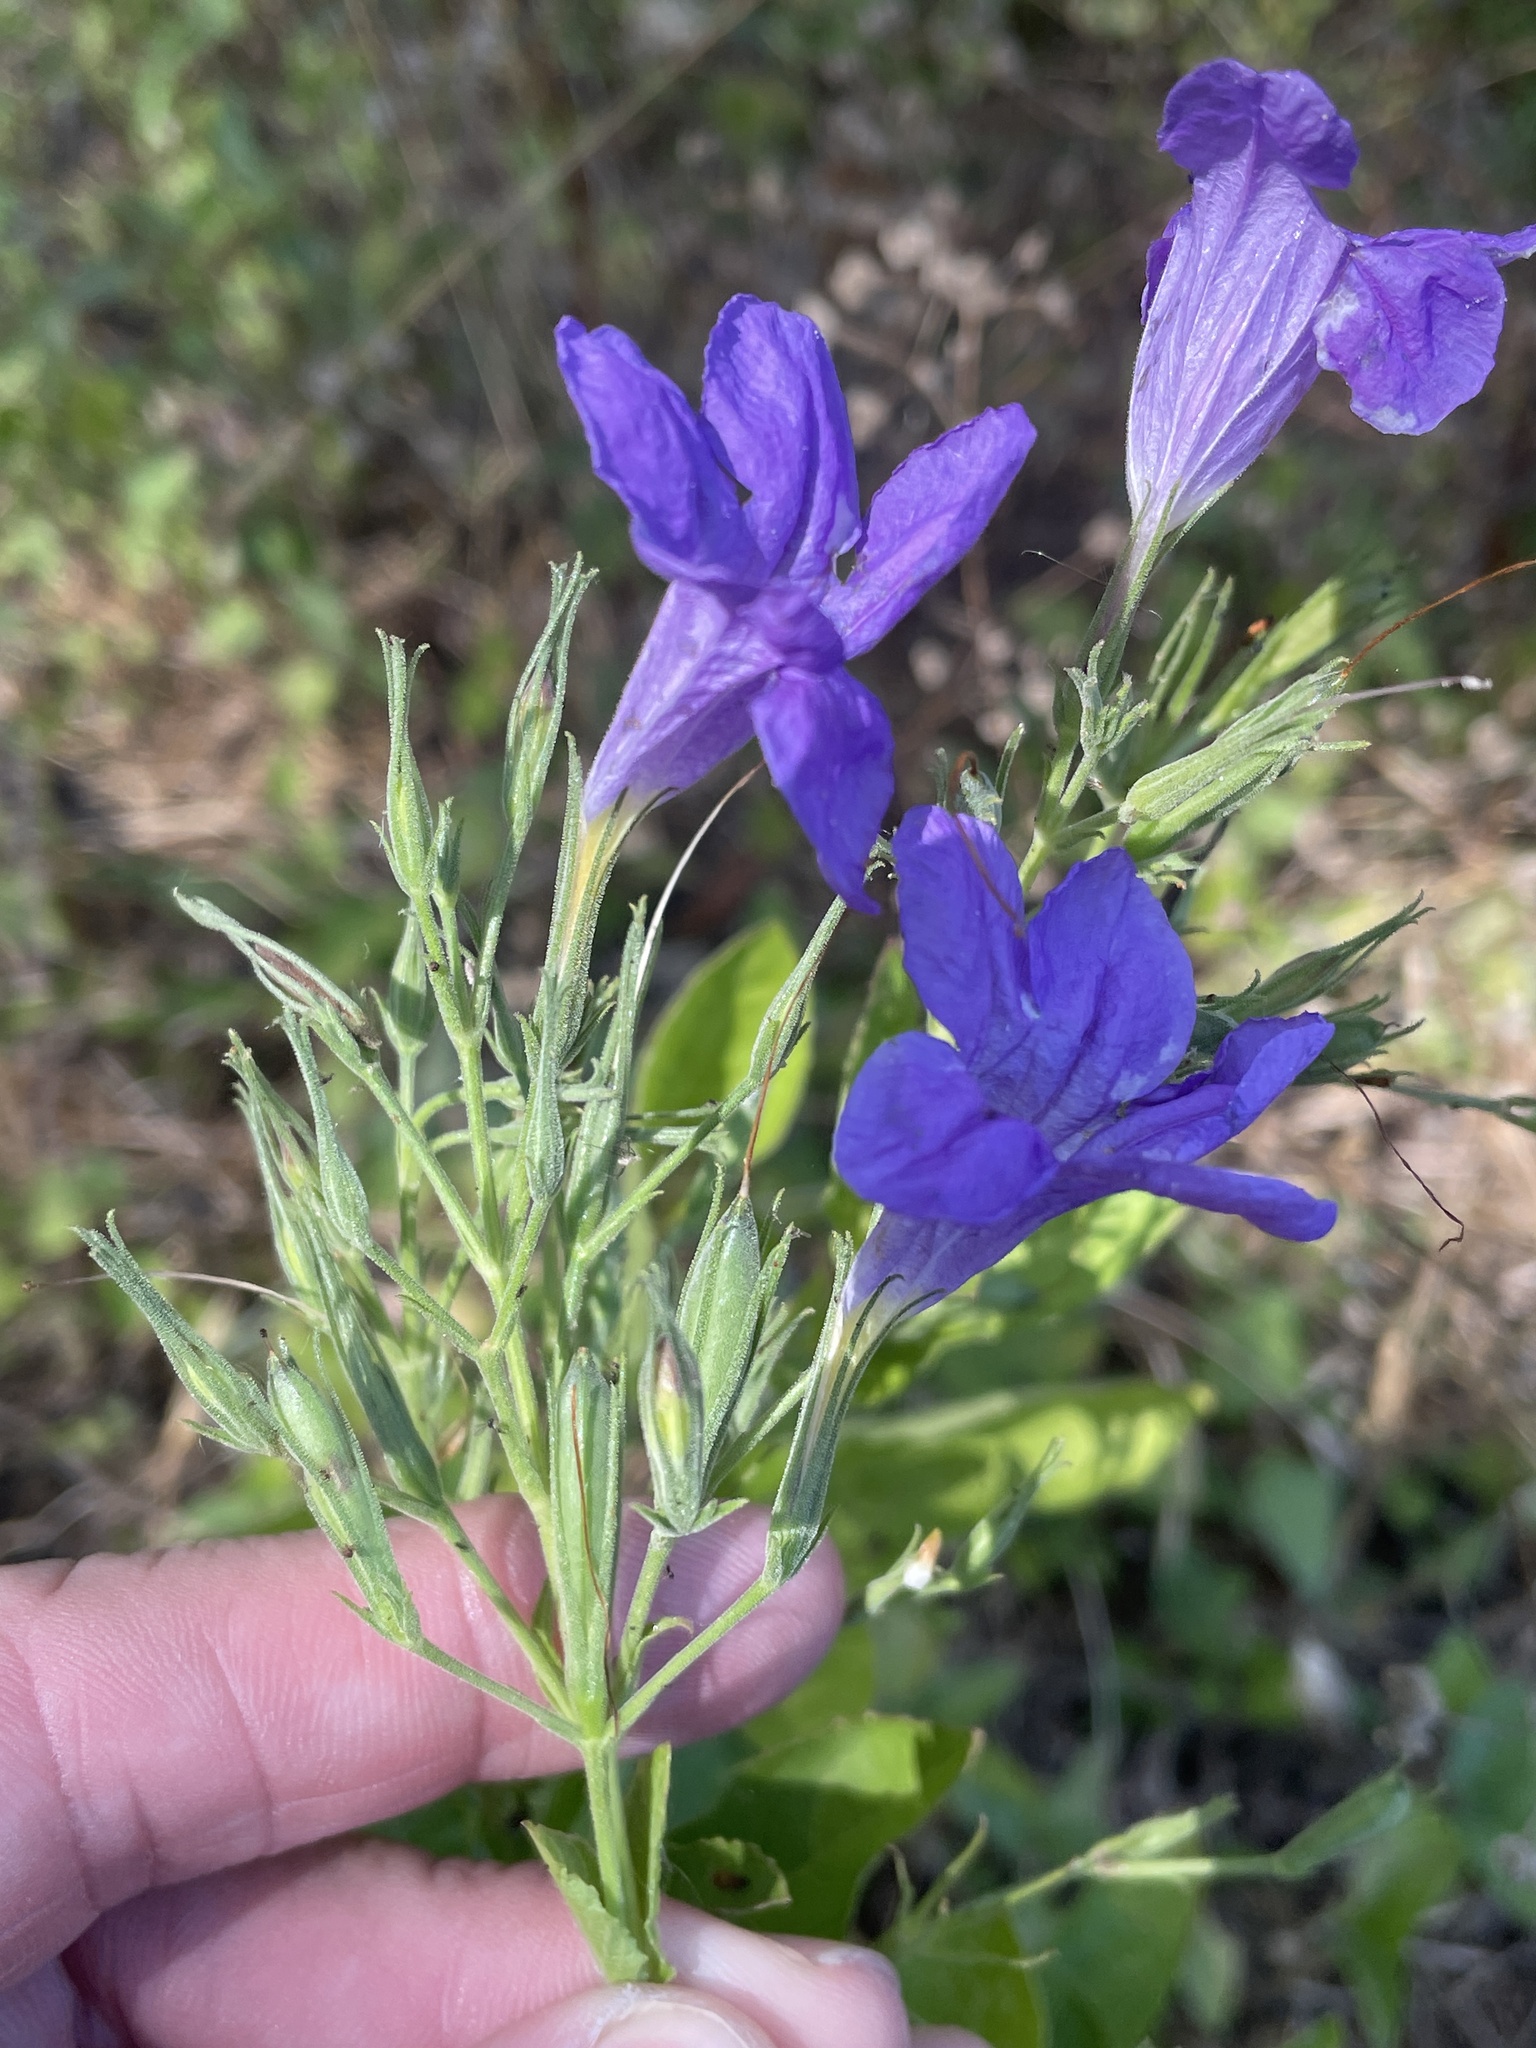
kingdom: Plantae
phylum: Tracheophyta
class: Magnoliopsida
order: Lamiales
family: Acanthaceae
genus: Ruellia
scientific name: Ruellia ciliatiflora
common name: Hairyflower wild petunia
